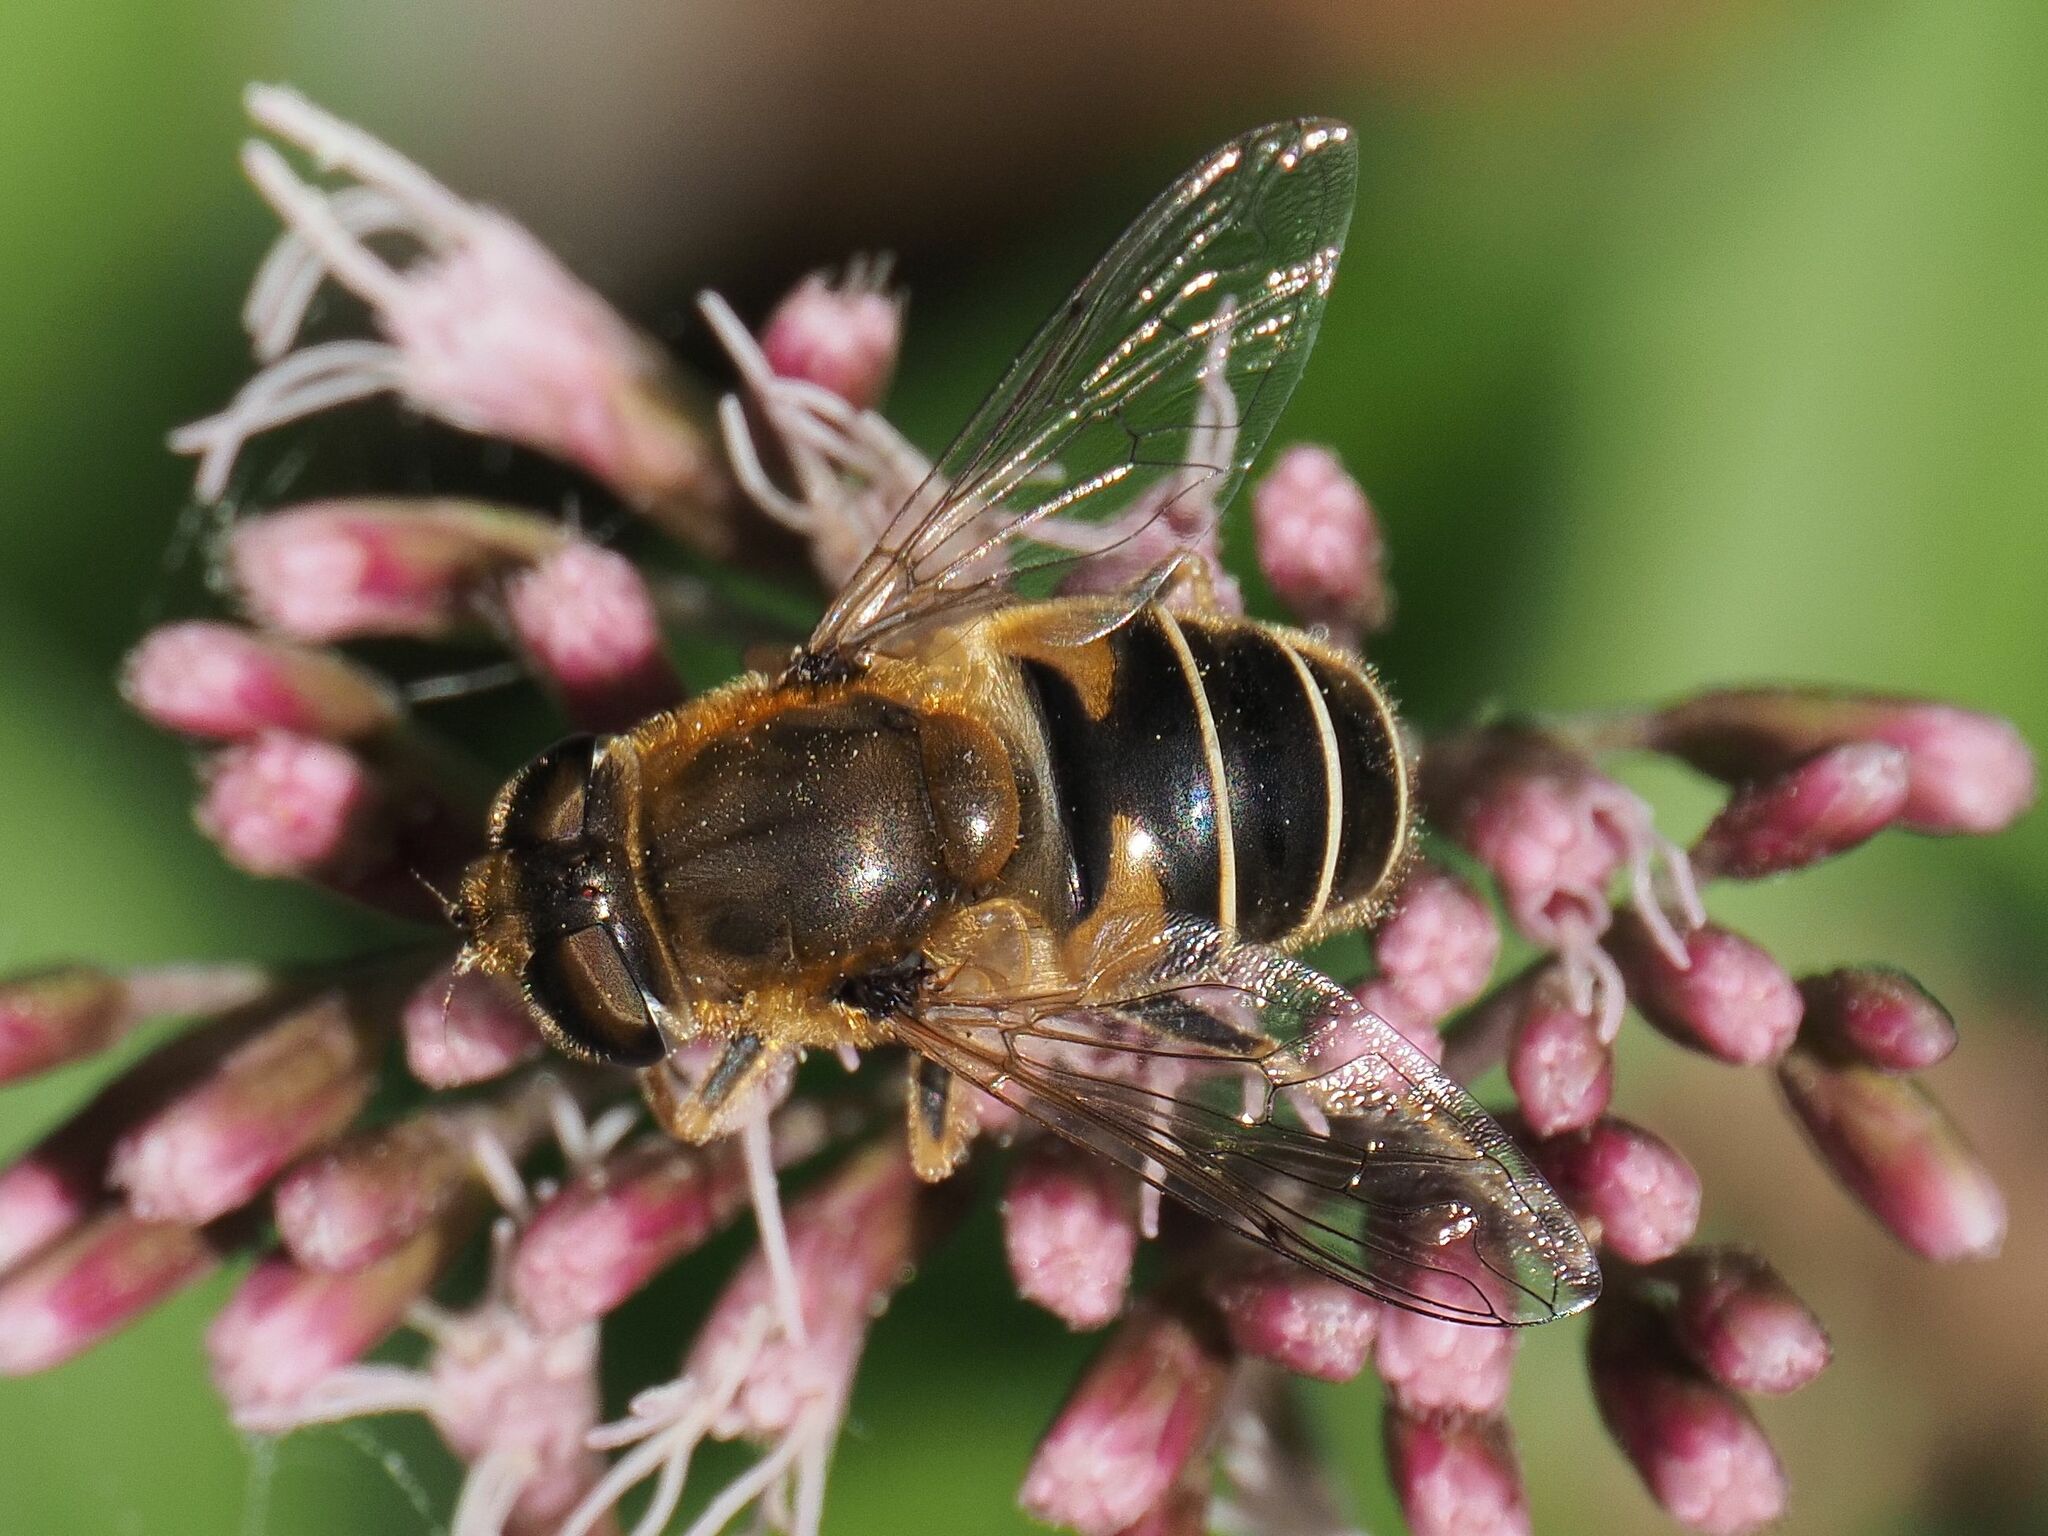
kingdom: Animalia
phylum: Arthropoda
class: Insecta
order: Diptera
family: Syrphidae
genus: Eristalis
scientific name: Eristalis nemorum
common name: Orange-spined drone fly
